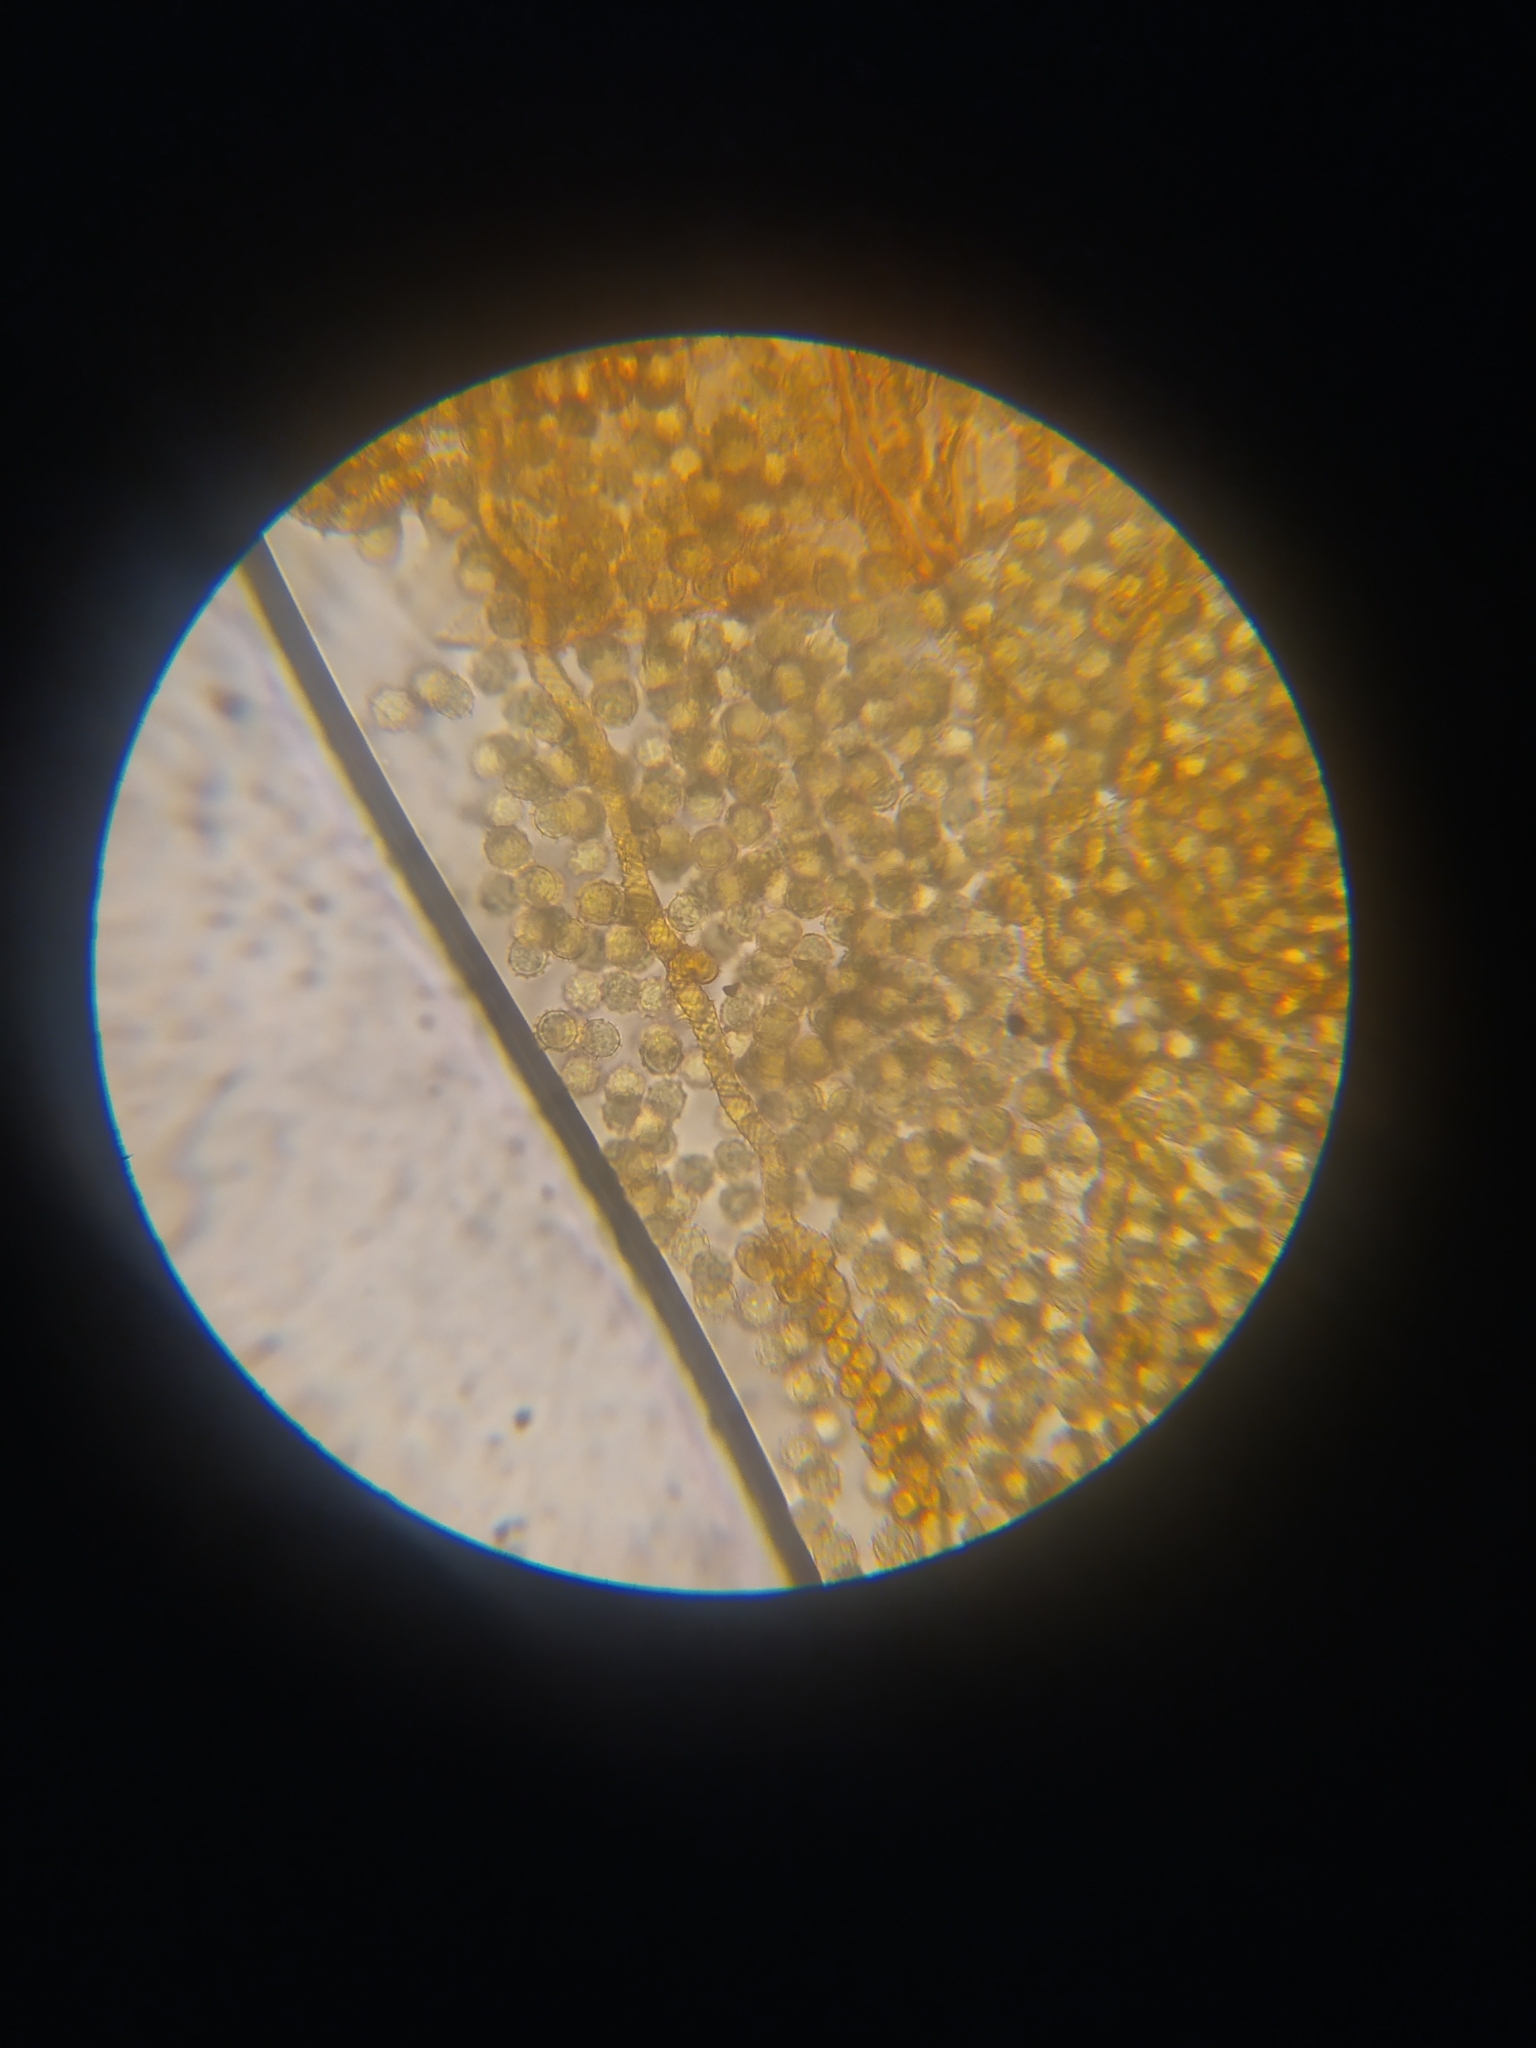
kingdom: Protozoa
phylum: Mycetozoa
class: Myxomycetes
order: Trichiales
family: Arcyriaceae
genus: Hemitrichia
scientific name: Hemitrichia serpula
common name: Pretzel slime mold
